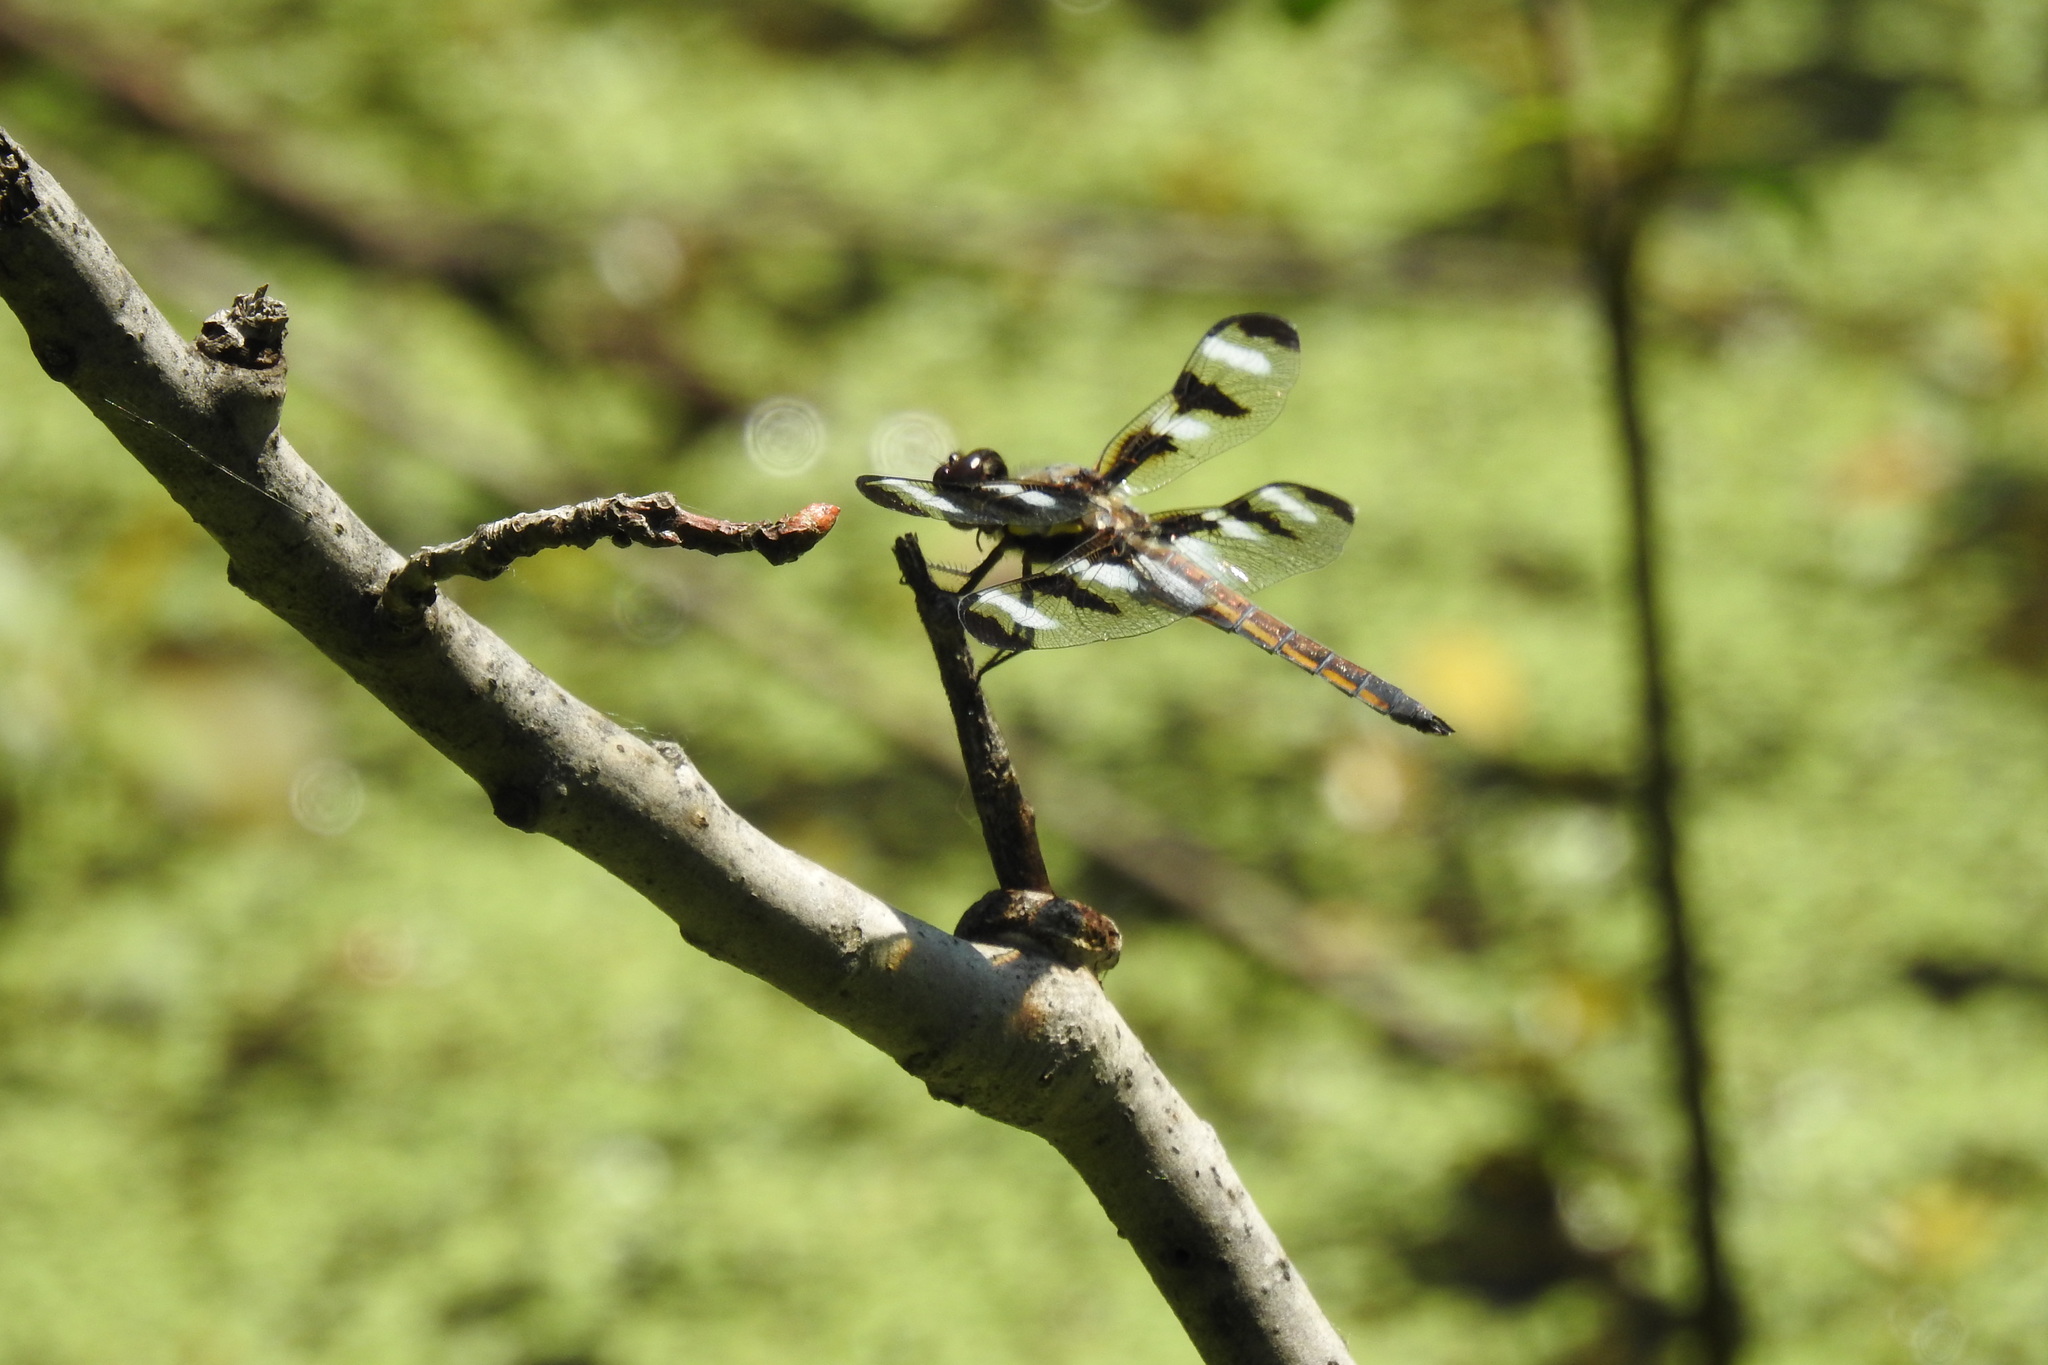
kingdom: Animalia
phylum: Arthropoda
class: Insecta
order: Odonata
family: Libellulidae
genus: Libellula
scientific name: Libellula pulchella
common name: Twelve-spotted skimmer
